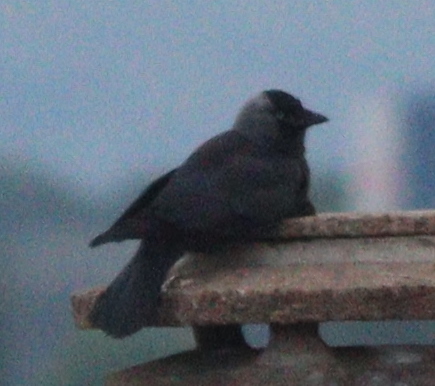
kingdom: Animalia
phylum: Chordata
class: Aves
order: Passeriformes
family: Corvidae
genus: Coloeus
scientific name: Coloeus monedula
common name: Western jackdaw
